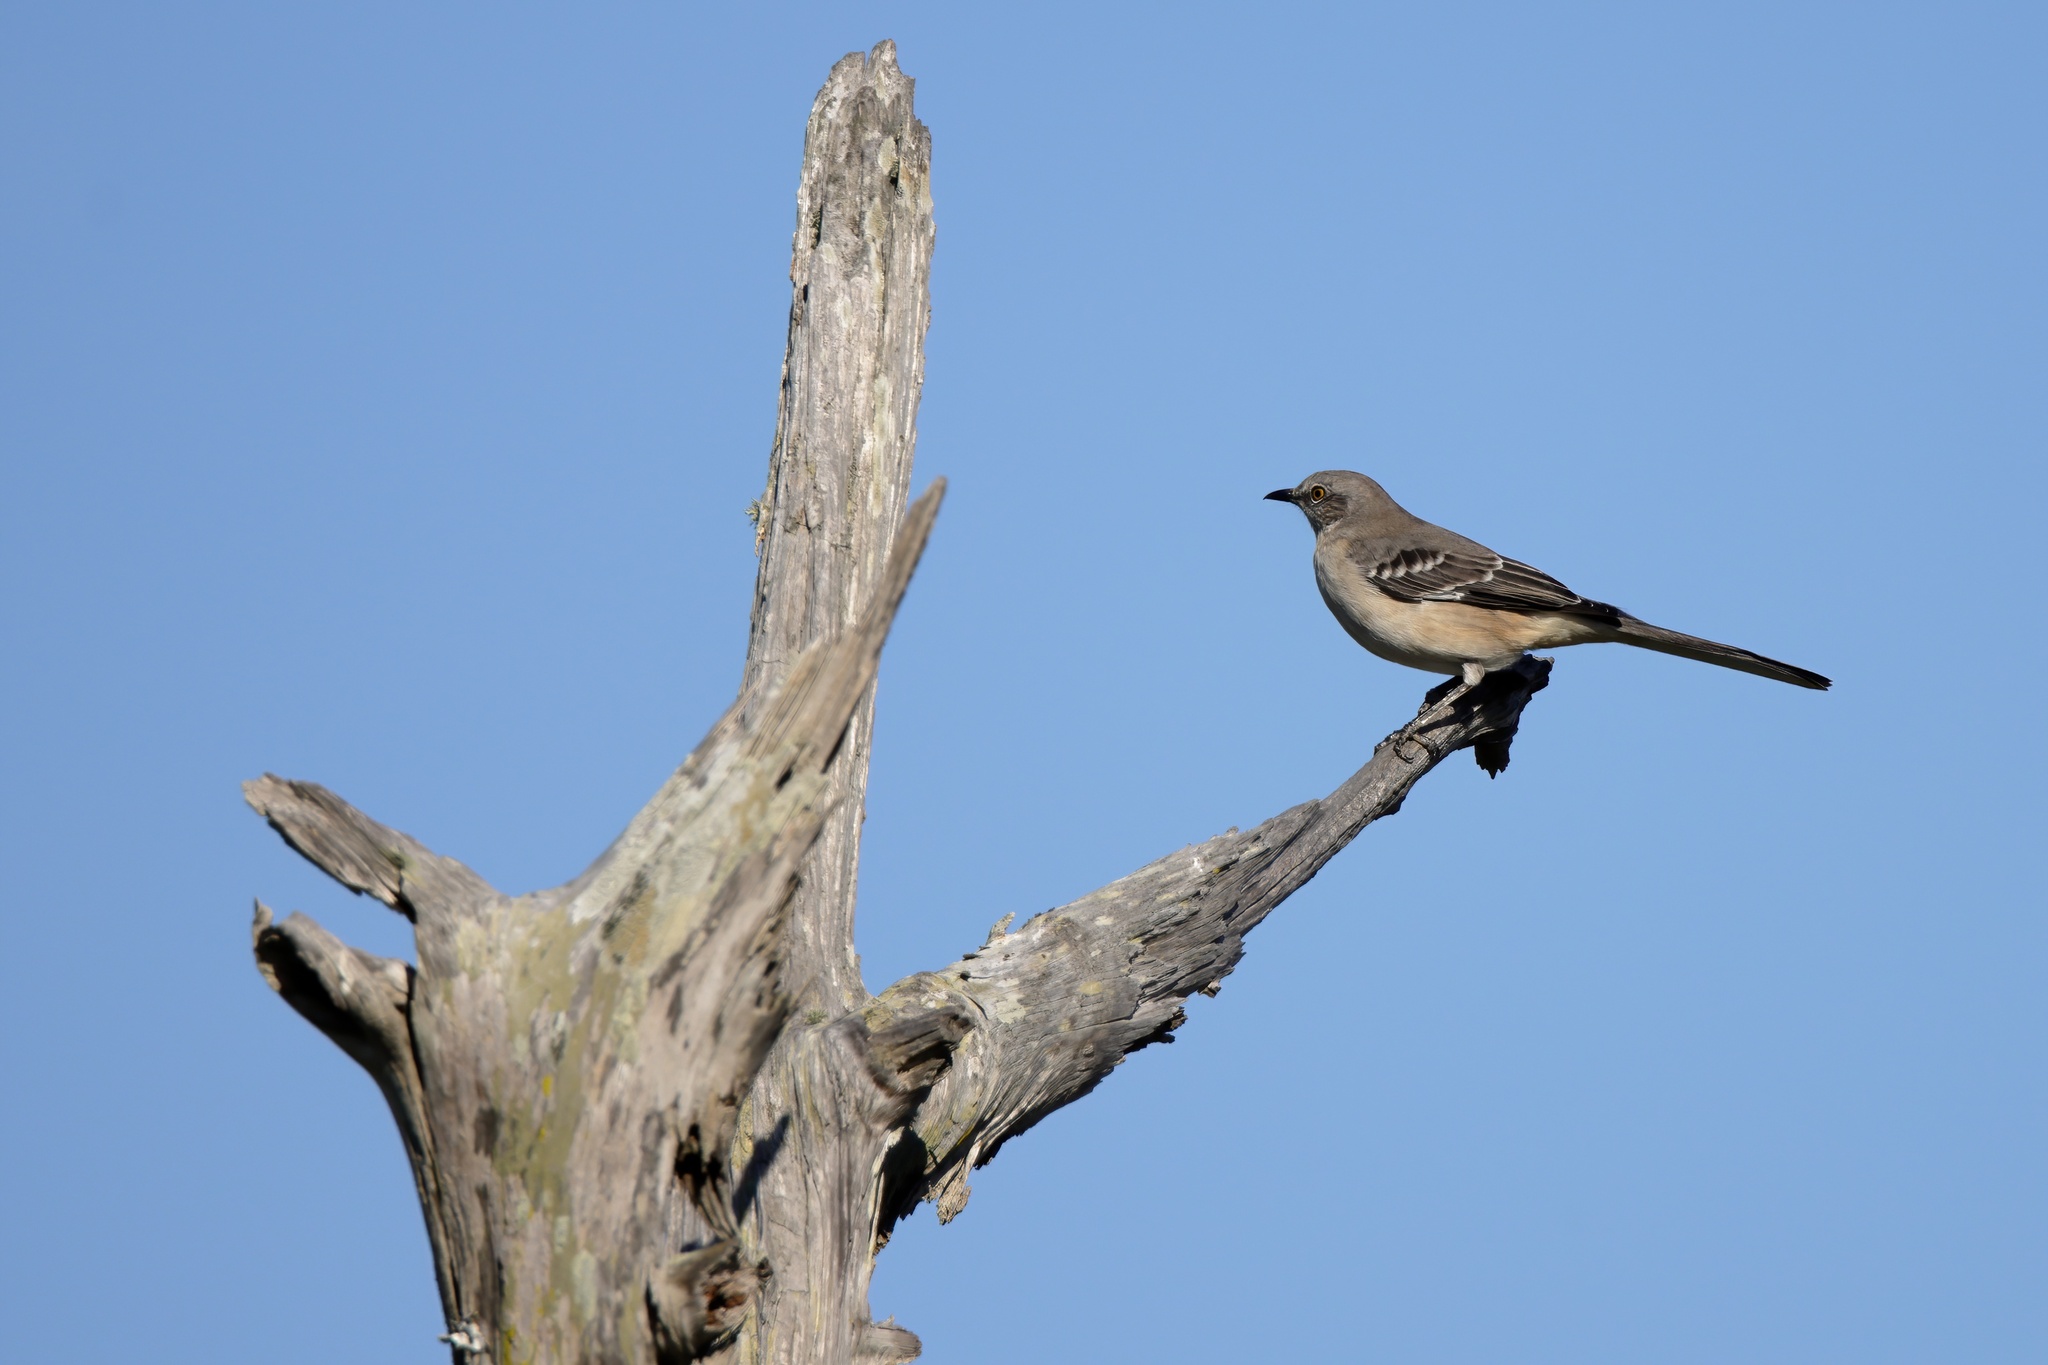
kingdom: Animalia
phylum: Chordata
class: Aves
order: Passeriformes
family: Mimidae
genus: Mimus
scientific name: Mimus polyglottos
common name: Northern mockingbird
